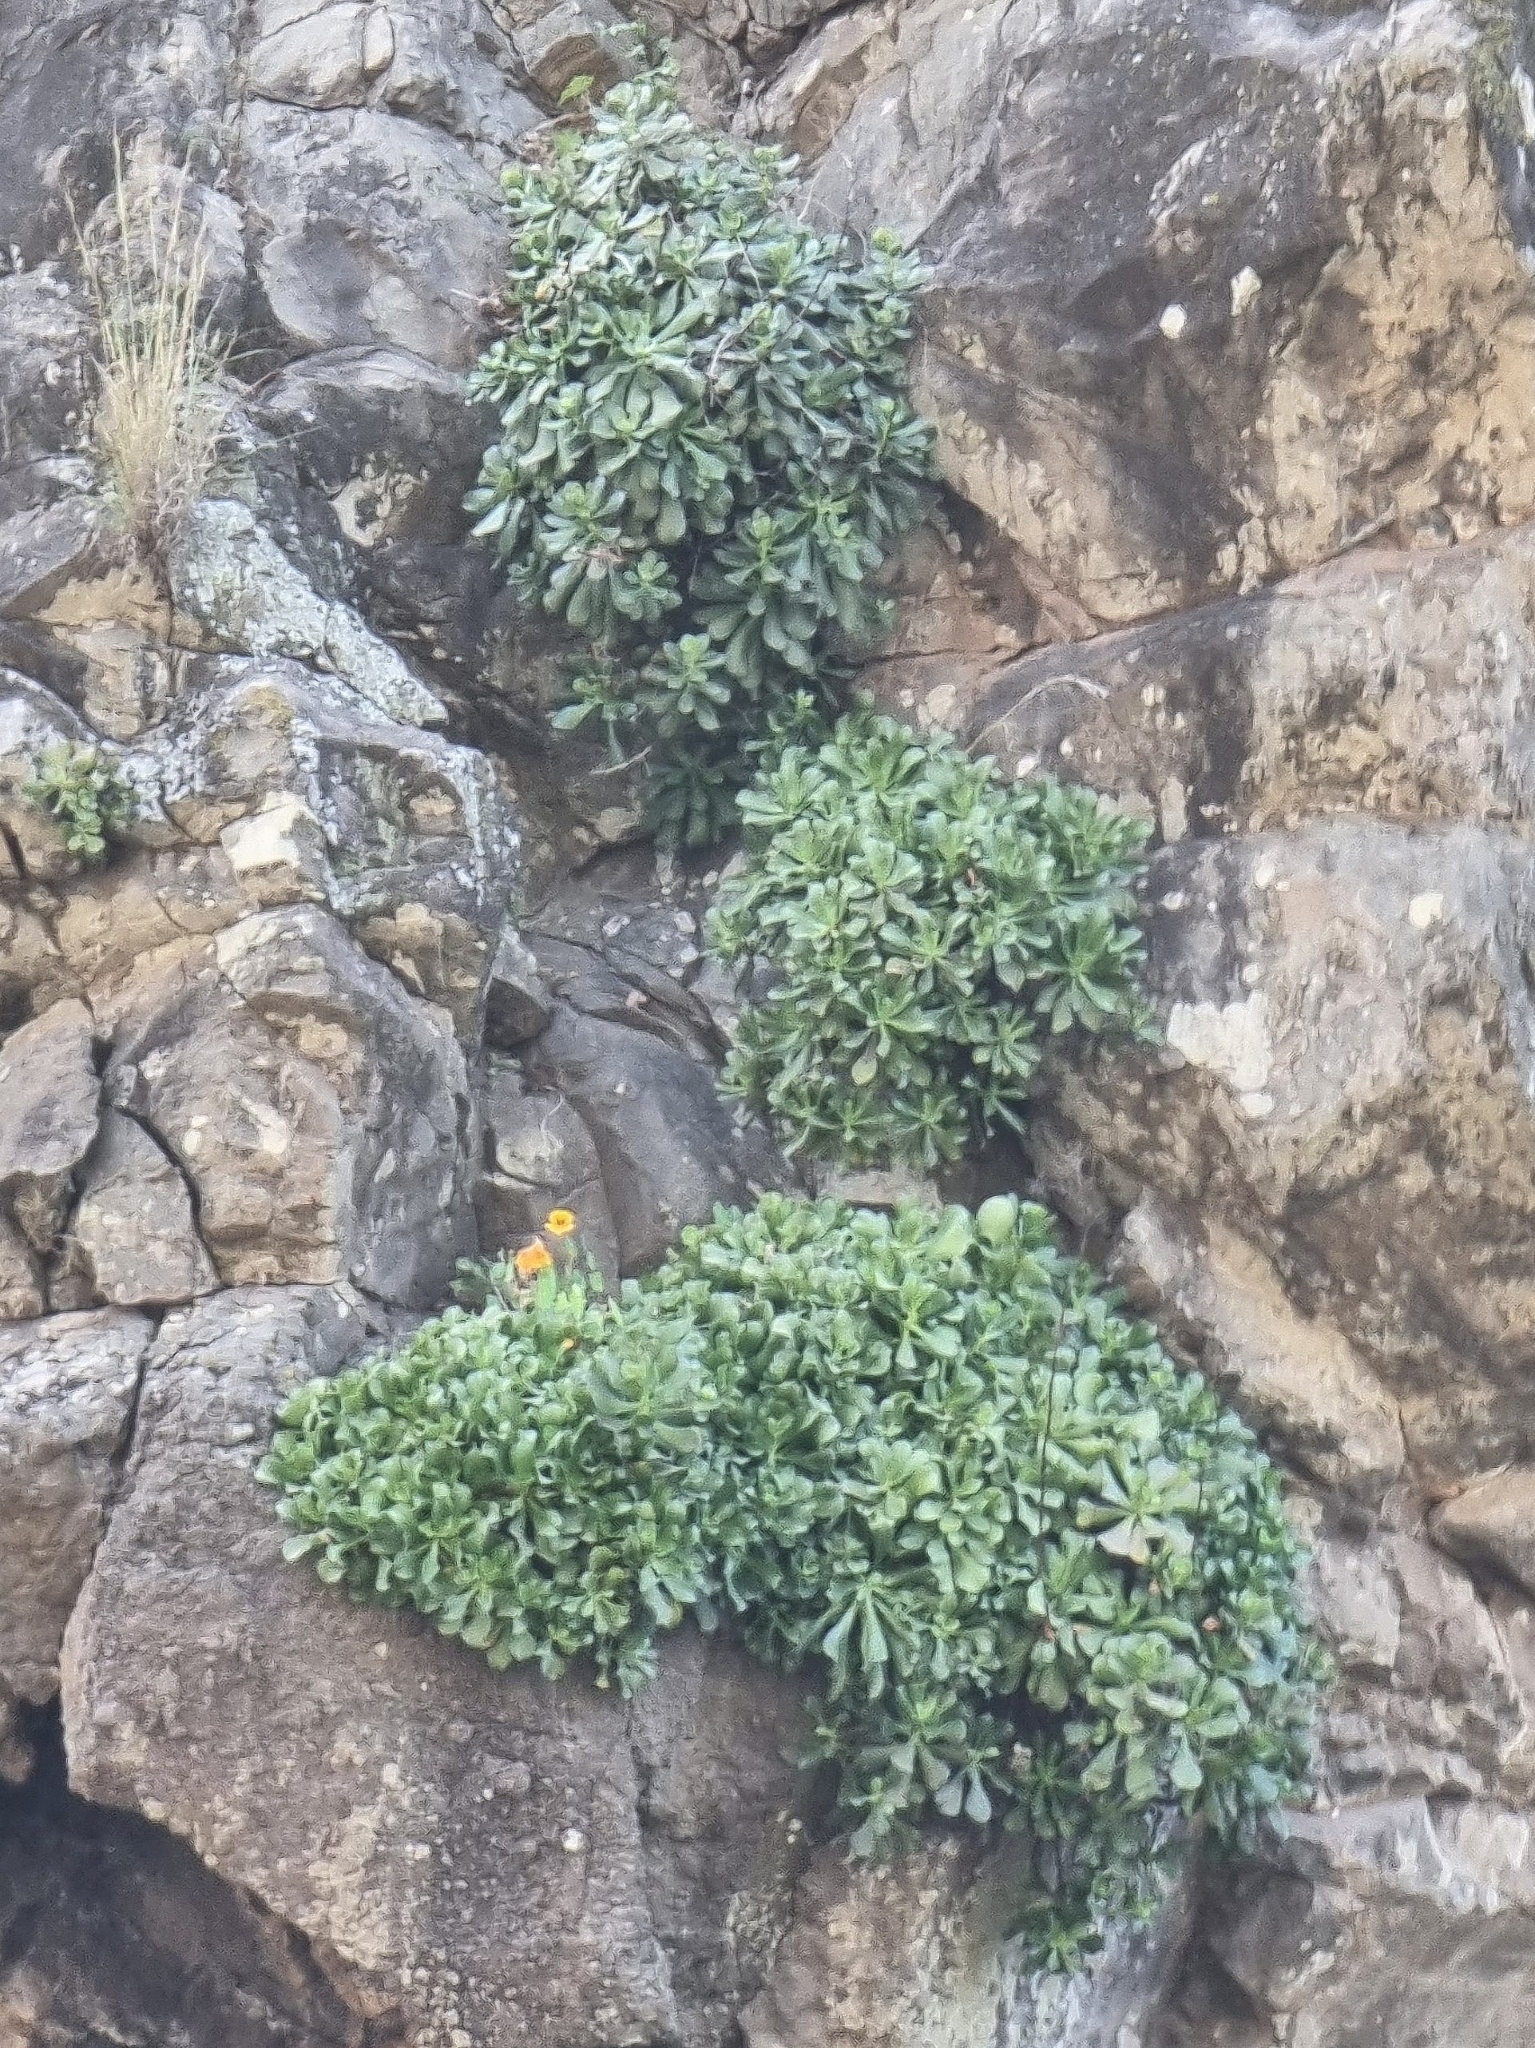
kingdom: Plantae
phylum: Tracheophyta
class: Magnoliopsida
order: Saxifragales
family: Crassulaceae
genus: Aeonium
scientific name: Aeonium glutinosum
